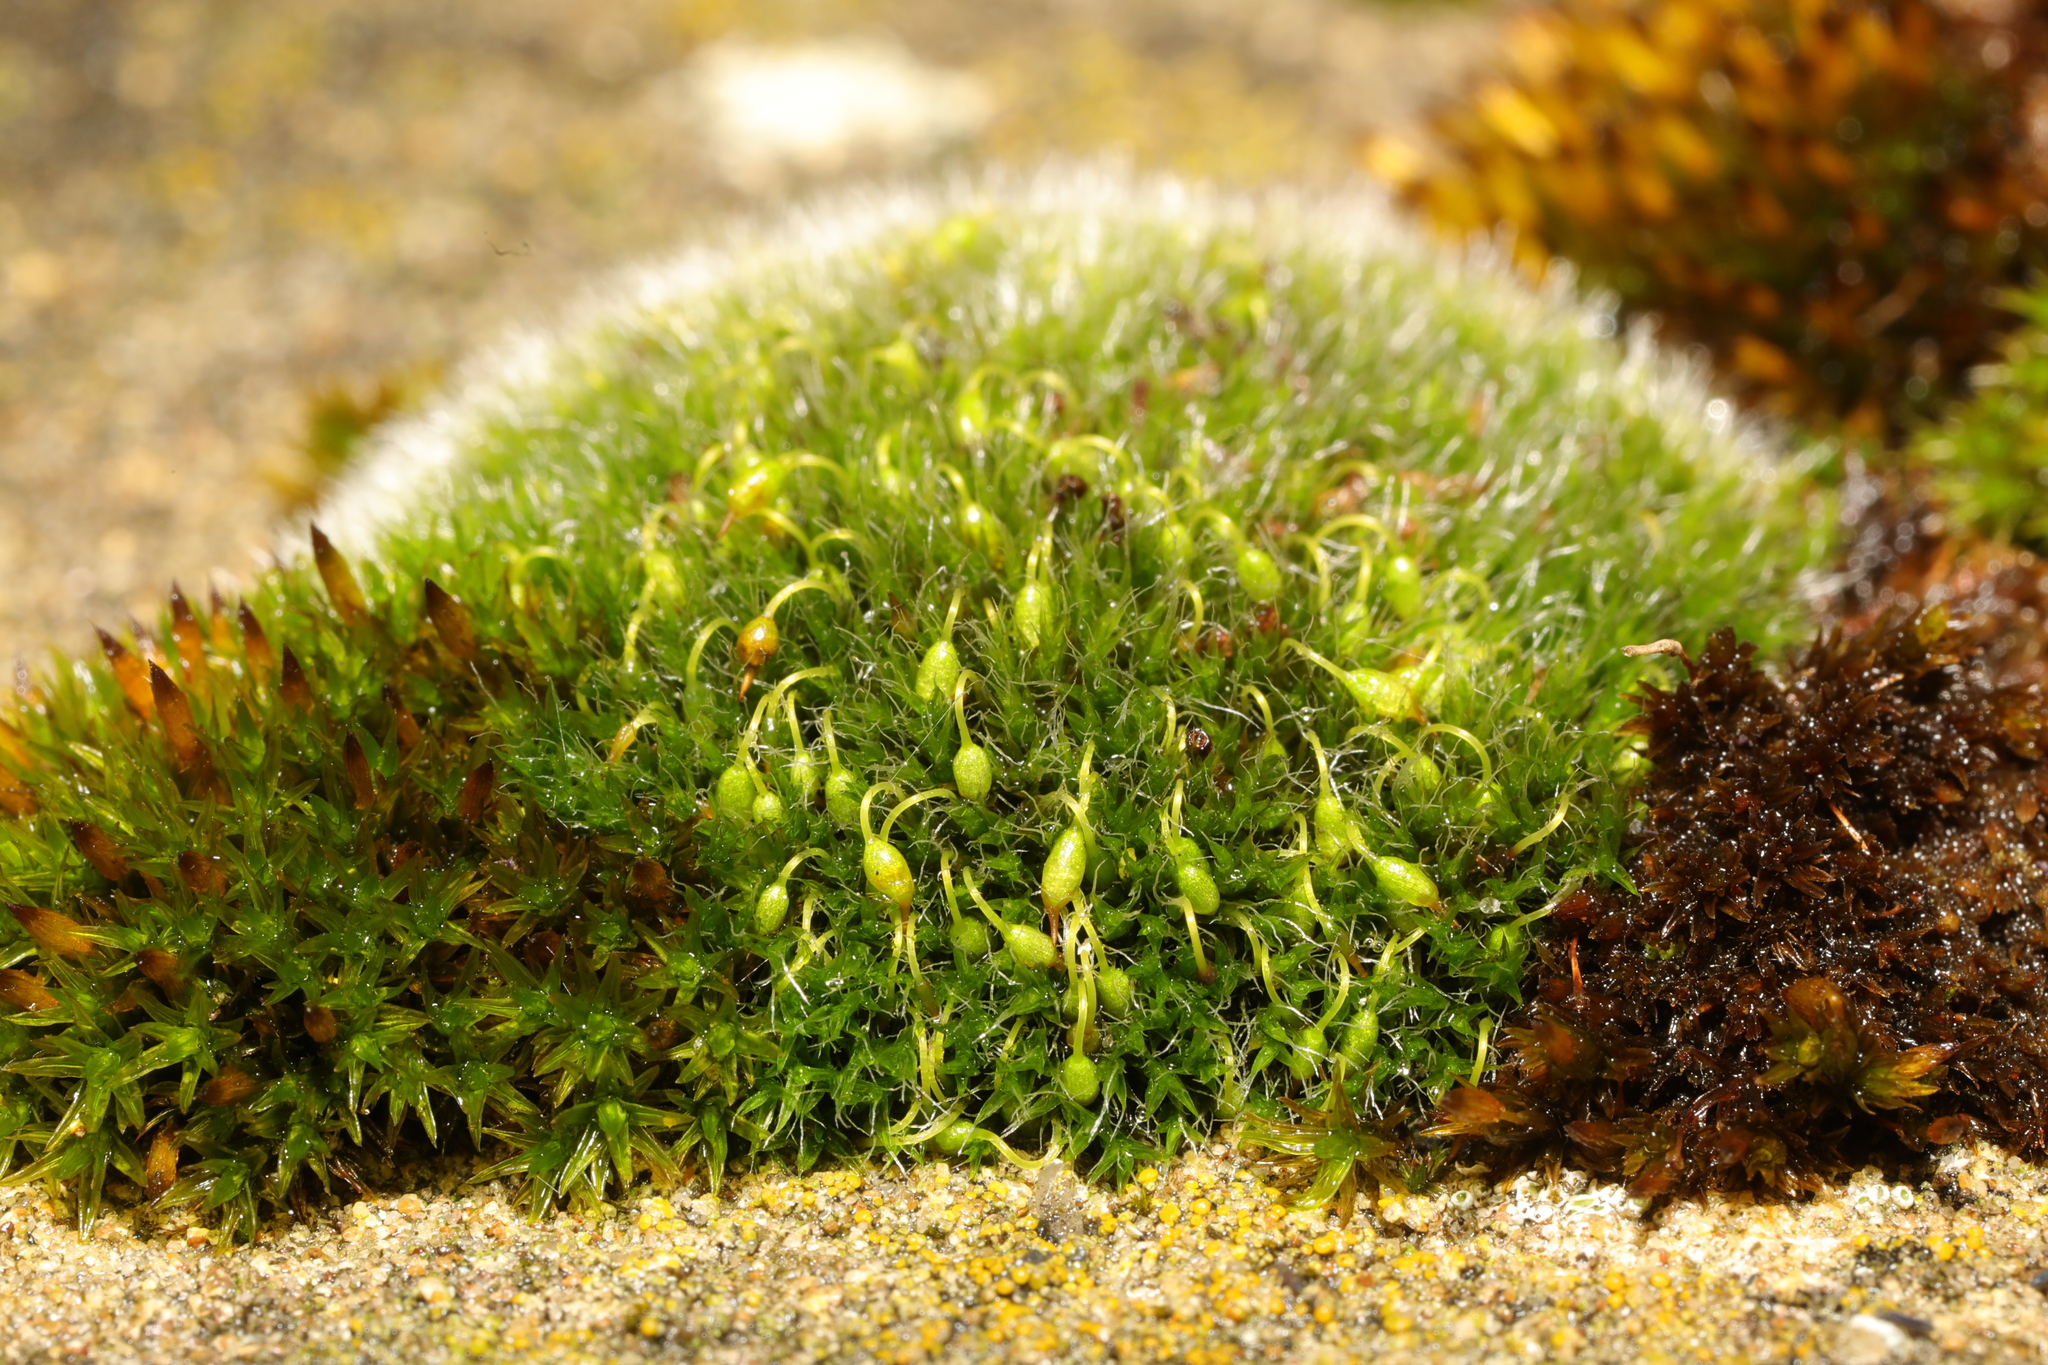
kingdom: Plantae
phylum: Bryophyta
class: Bryopsida
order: Grimmiales
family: Grimmiaceae
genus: Grimmia
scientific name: Grimmia pulvinata
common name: Grey-cushioned grimmia
